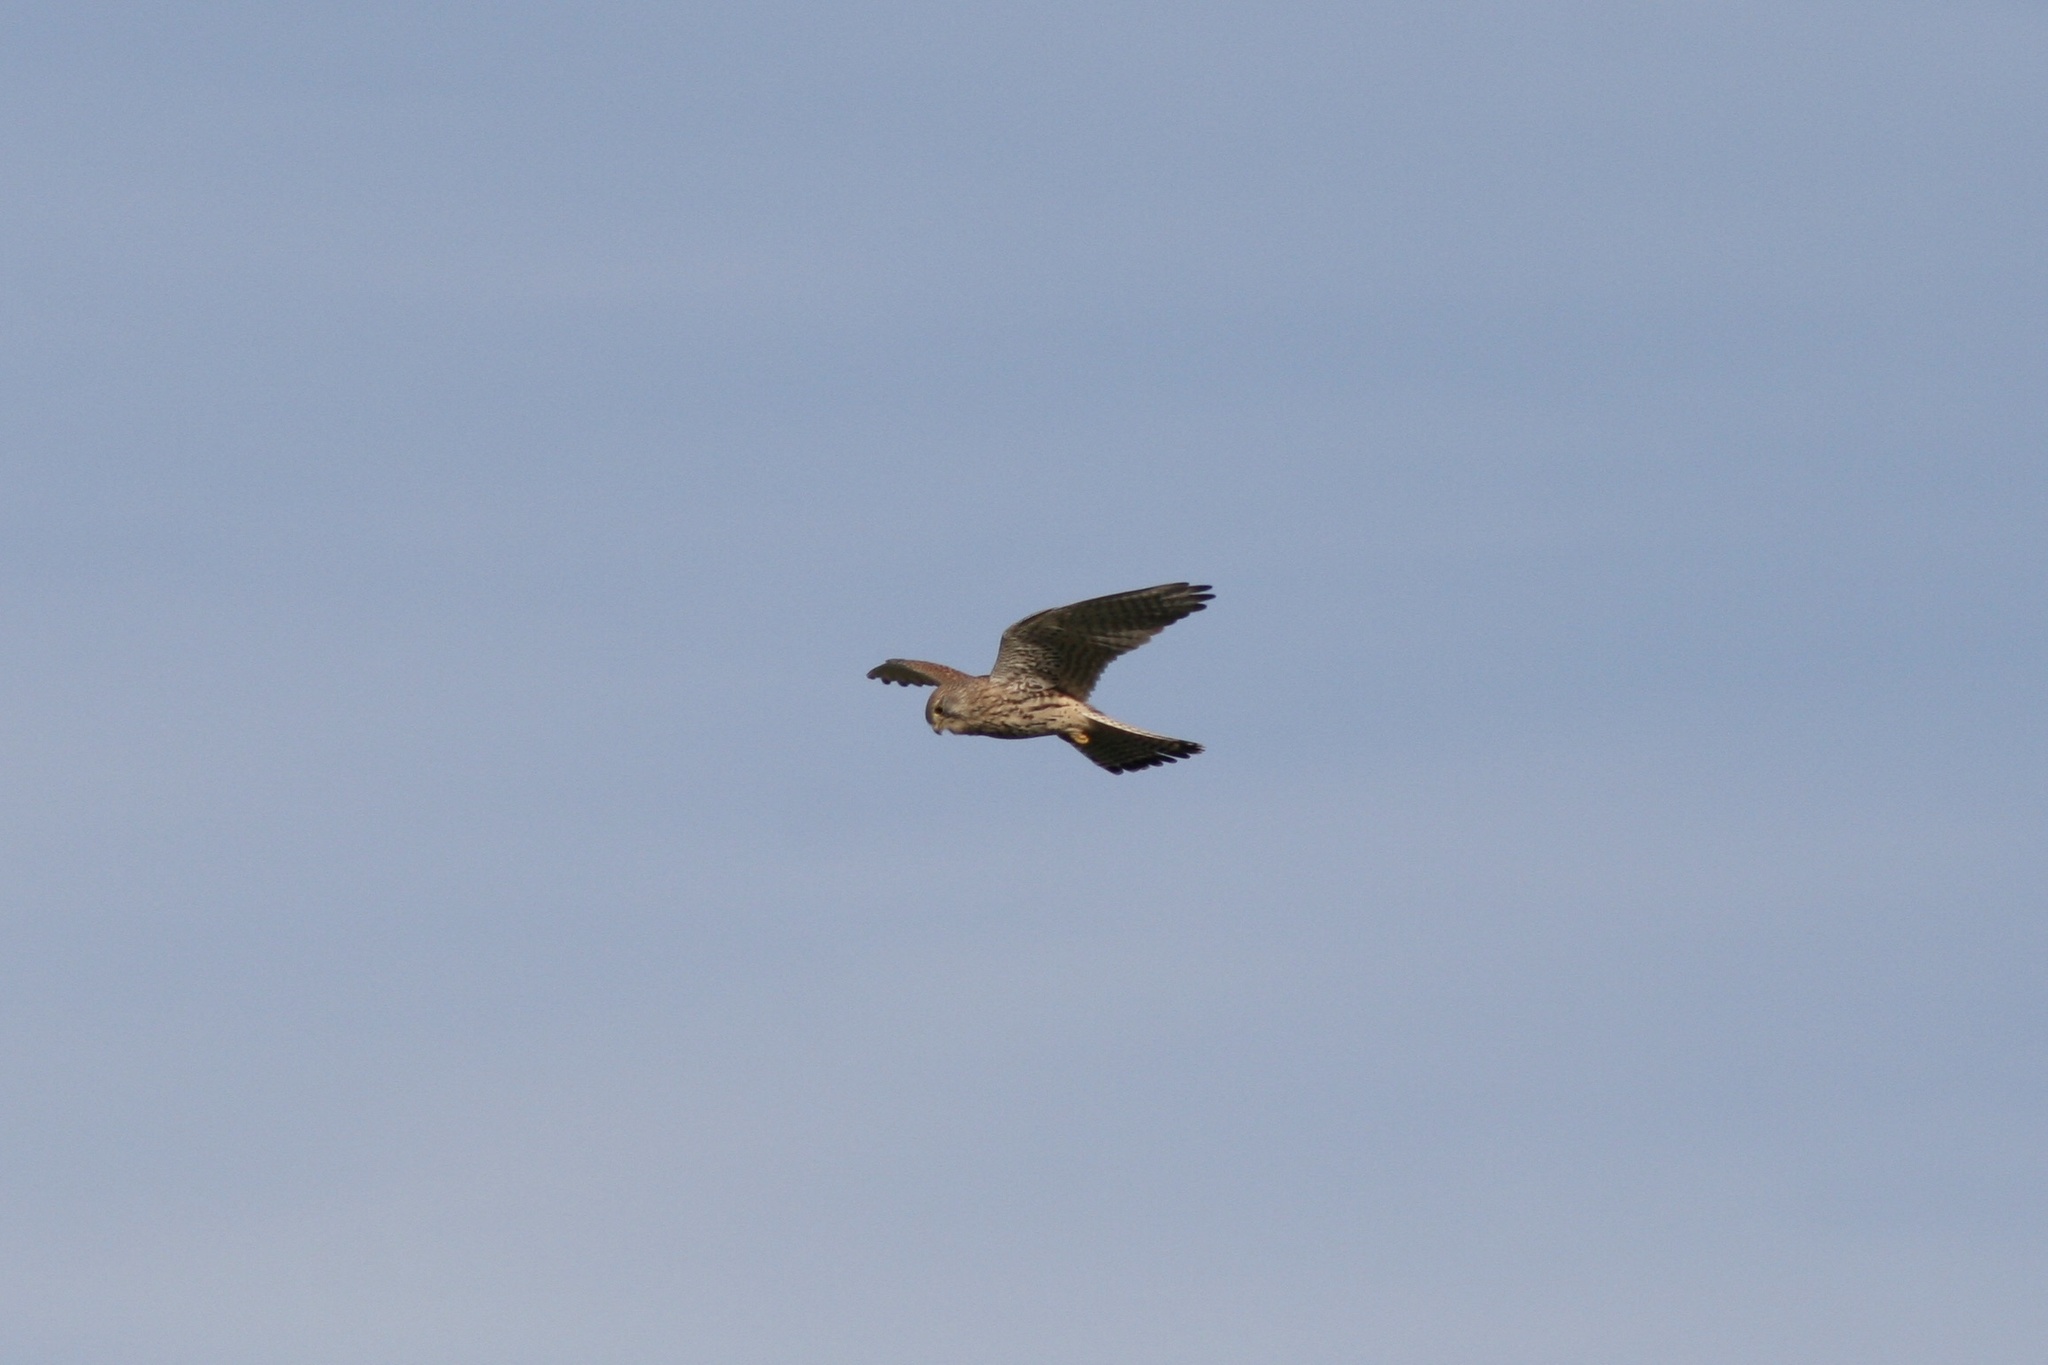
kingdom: Animalia
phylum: Chordata
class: Aves
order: Falconiformes
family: Falconidae
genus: Falco
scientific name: Falco tinnunculus
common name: Common kestrel
